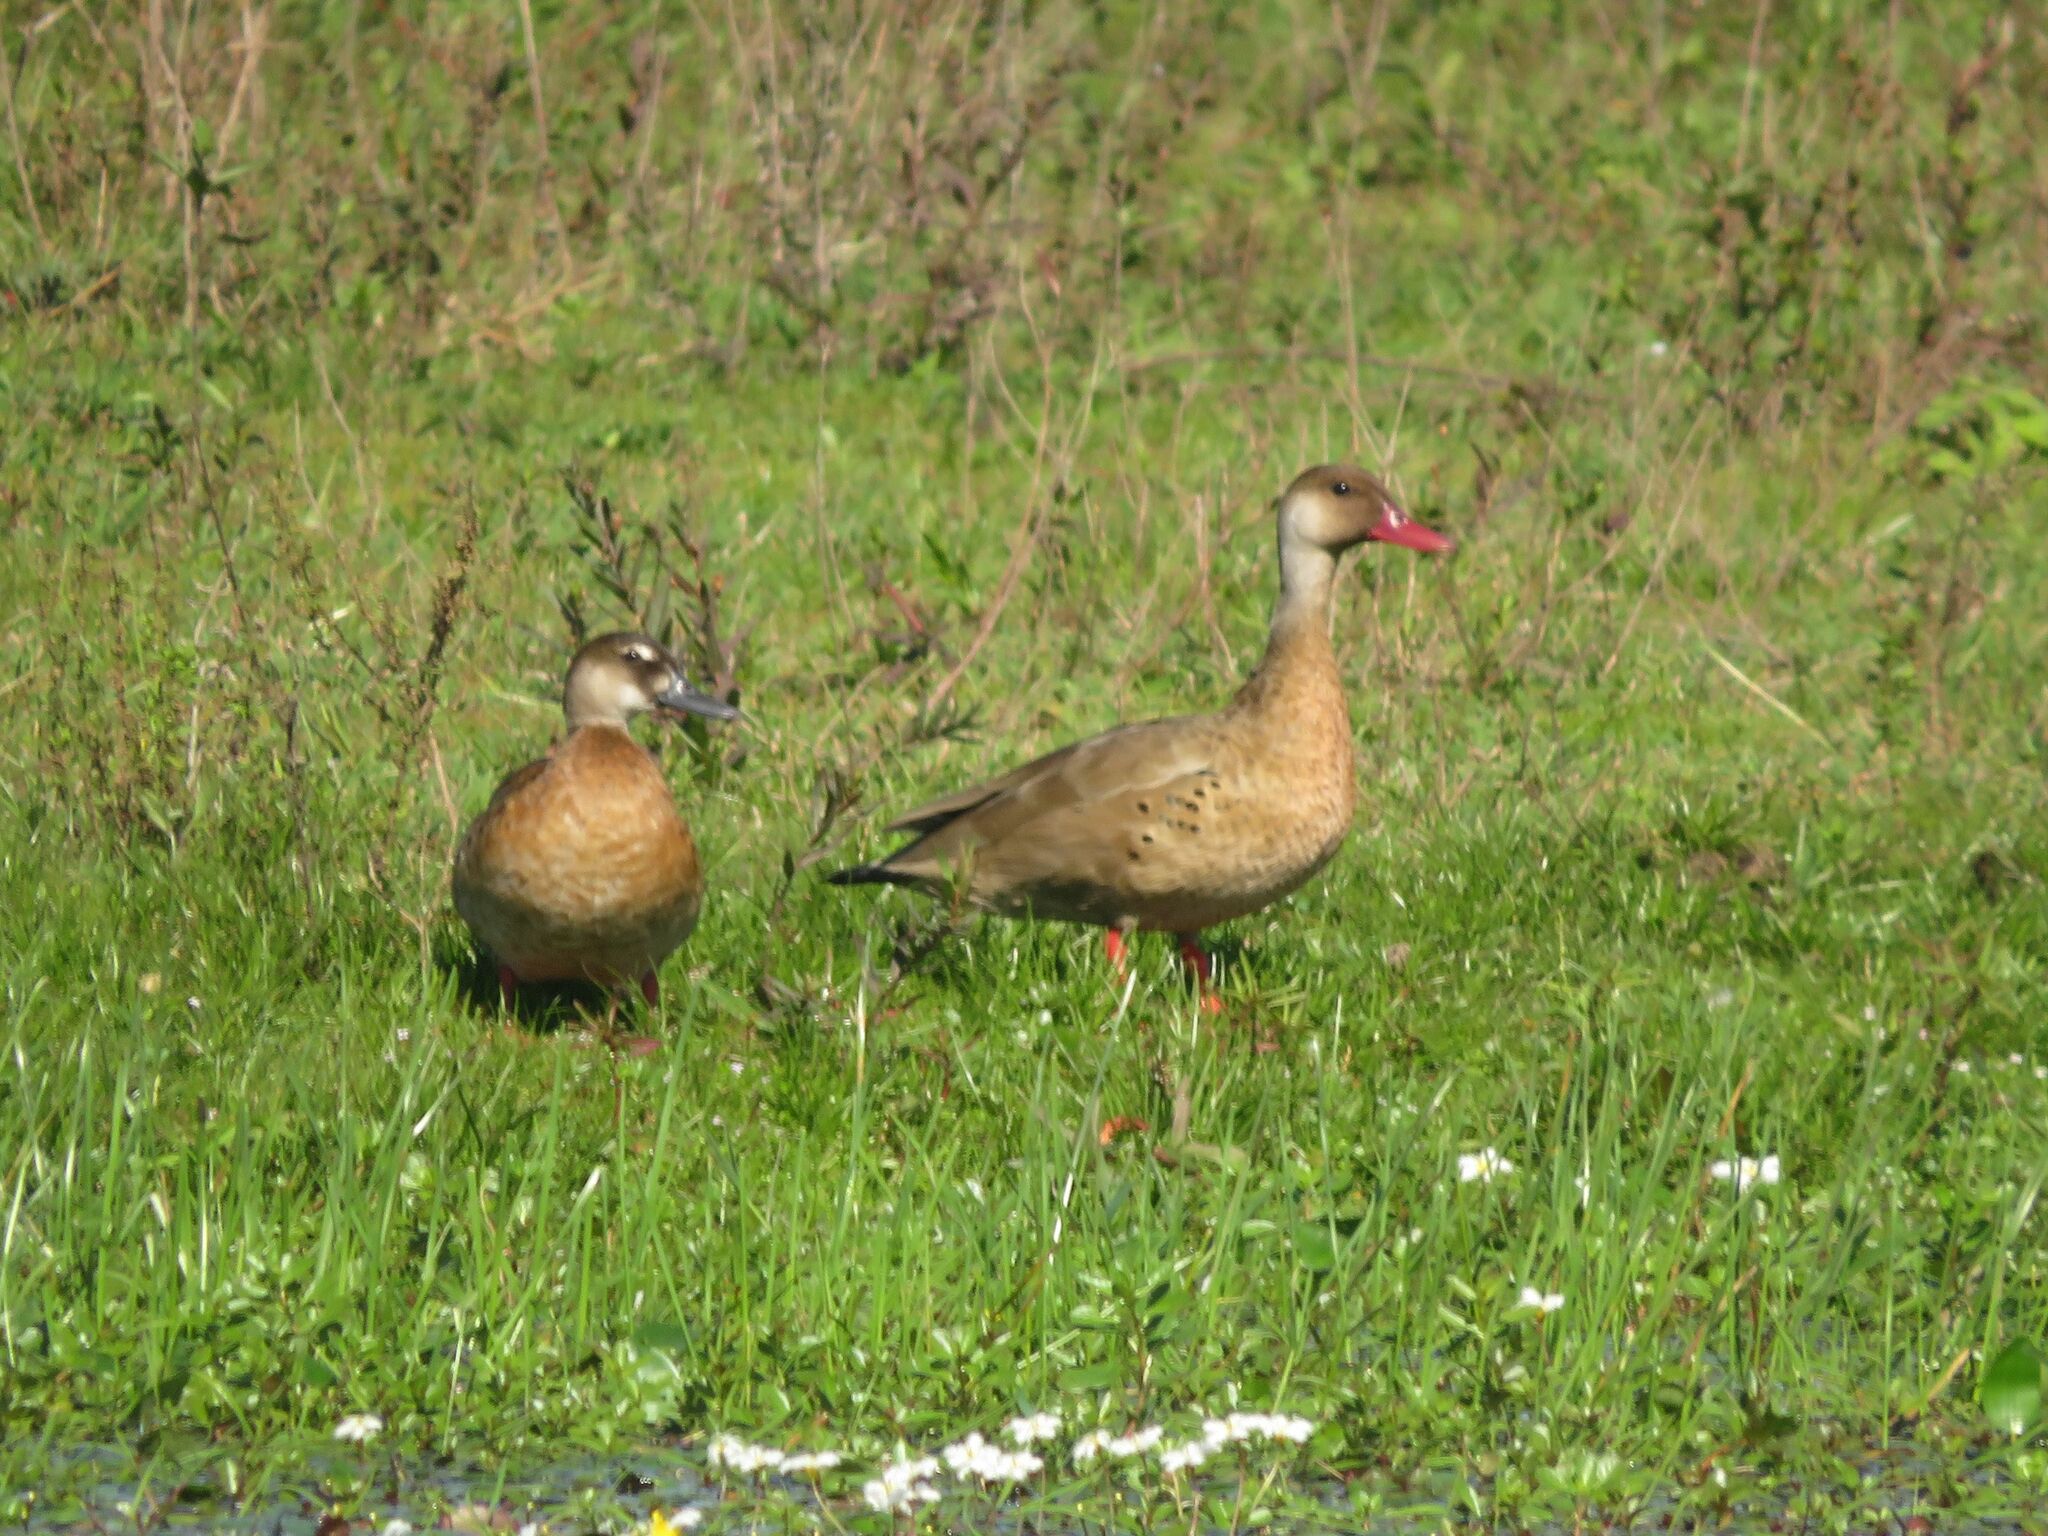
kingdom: Animalia
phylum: Chordata
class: Aves
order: Anseriformes
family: Anatidae
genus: Amazonetta
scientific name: Amazonetta brasiliensis
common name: Brazilian teal
